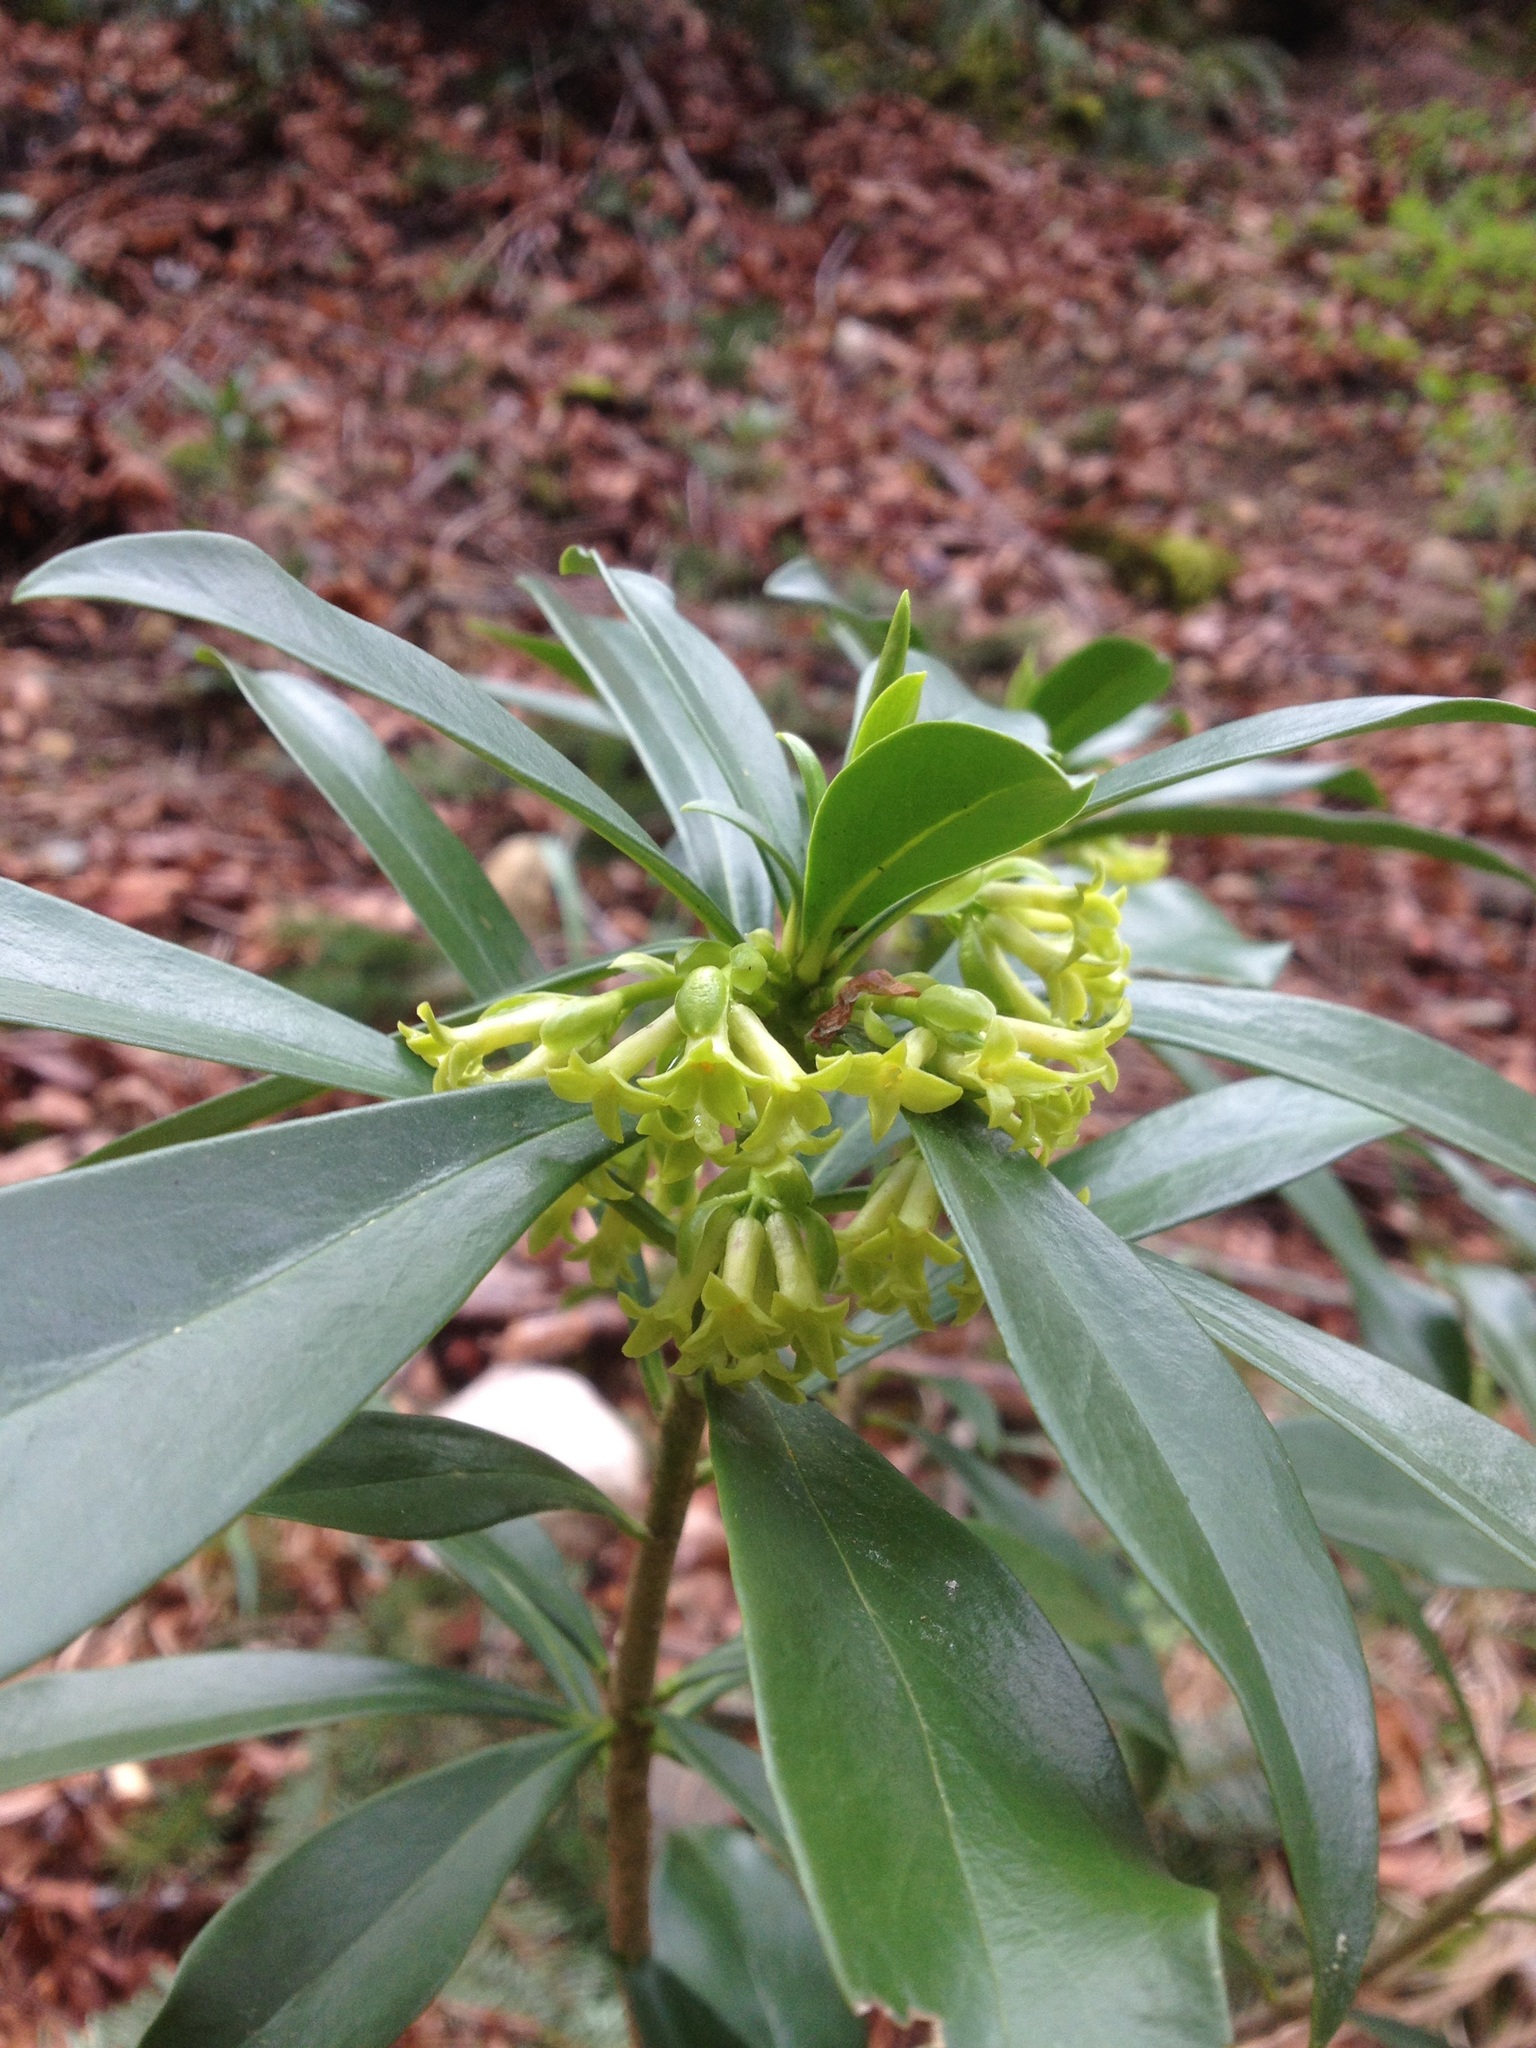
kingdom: Plantae
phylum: Tracheophyta
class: Magnoliopsida
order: Malvales
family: Thymelaeaceae
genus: Daphne
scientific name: Daphne laureola
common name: Spurge-laurel
